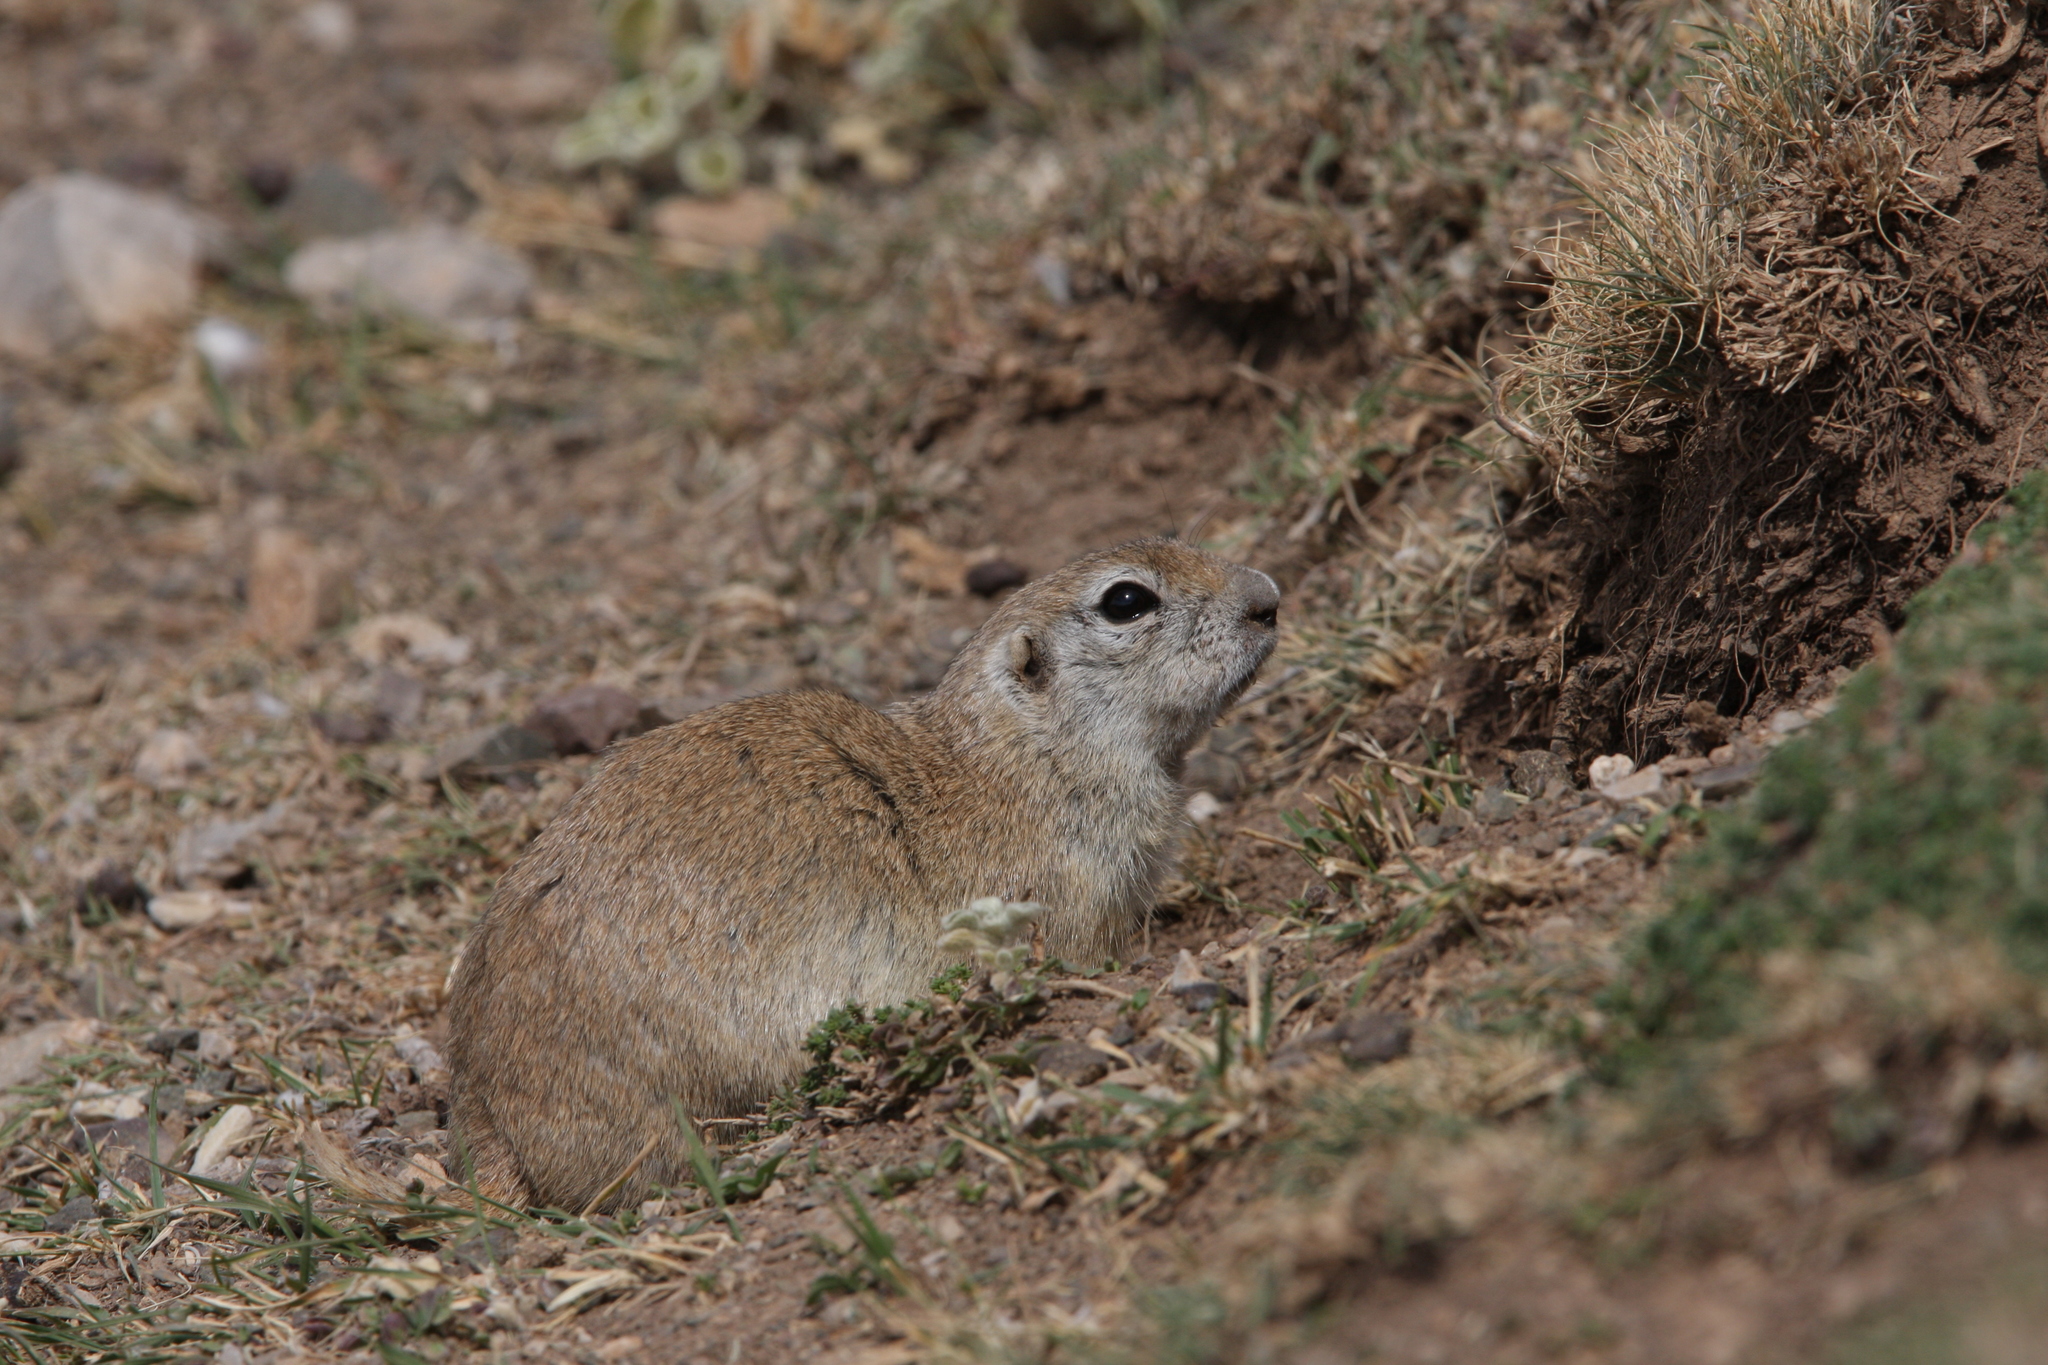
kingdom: Animalia
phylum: Chordata
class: Mammalia
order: Rodentia
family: Sciuridae
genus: Spermophilus
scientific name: Spermophilus xanthoprymnus
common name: Asia minor ground squirrel
